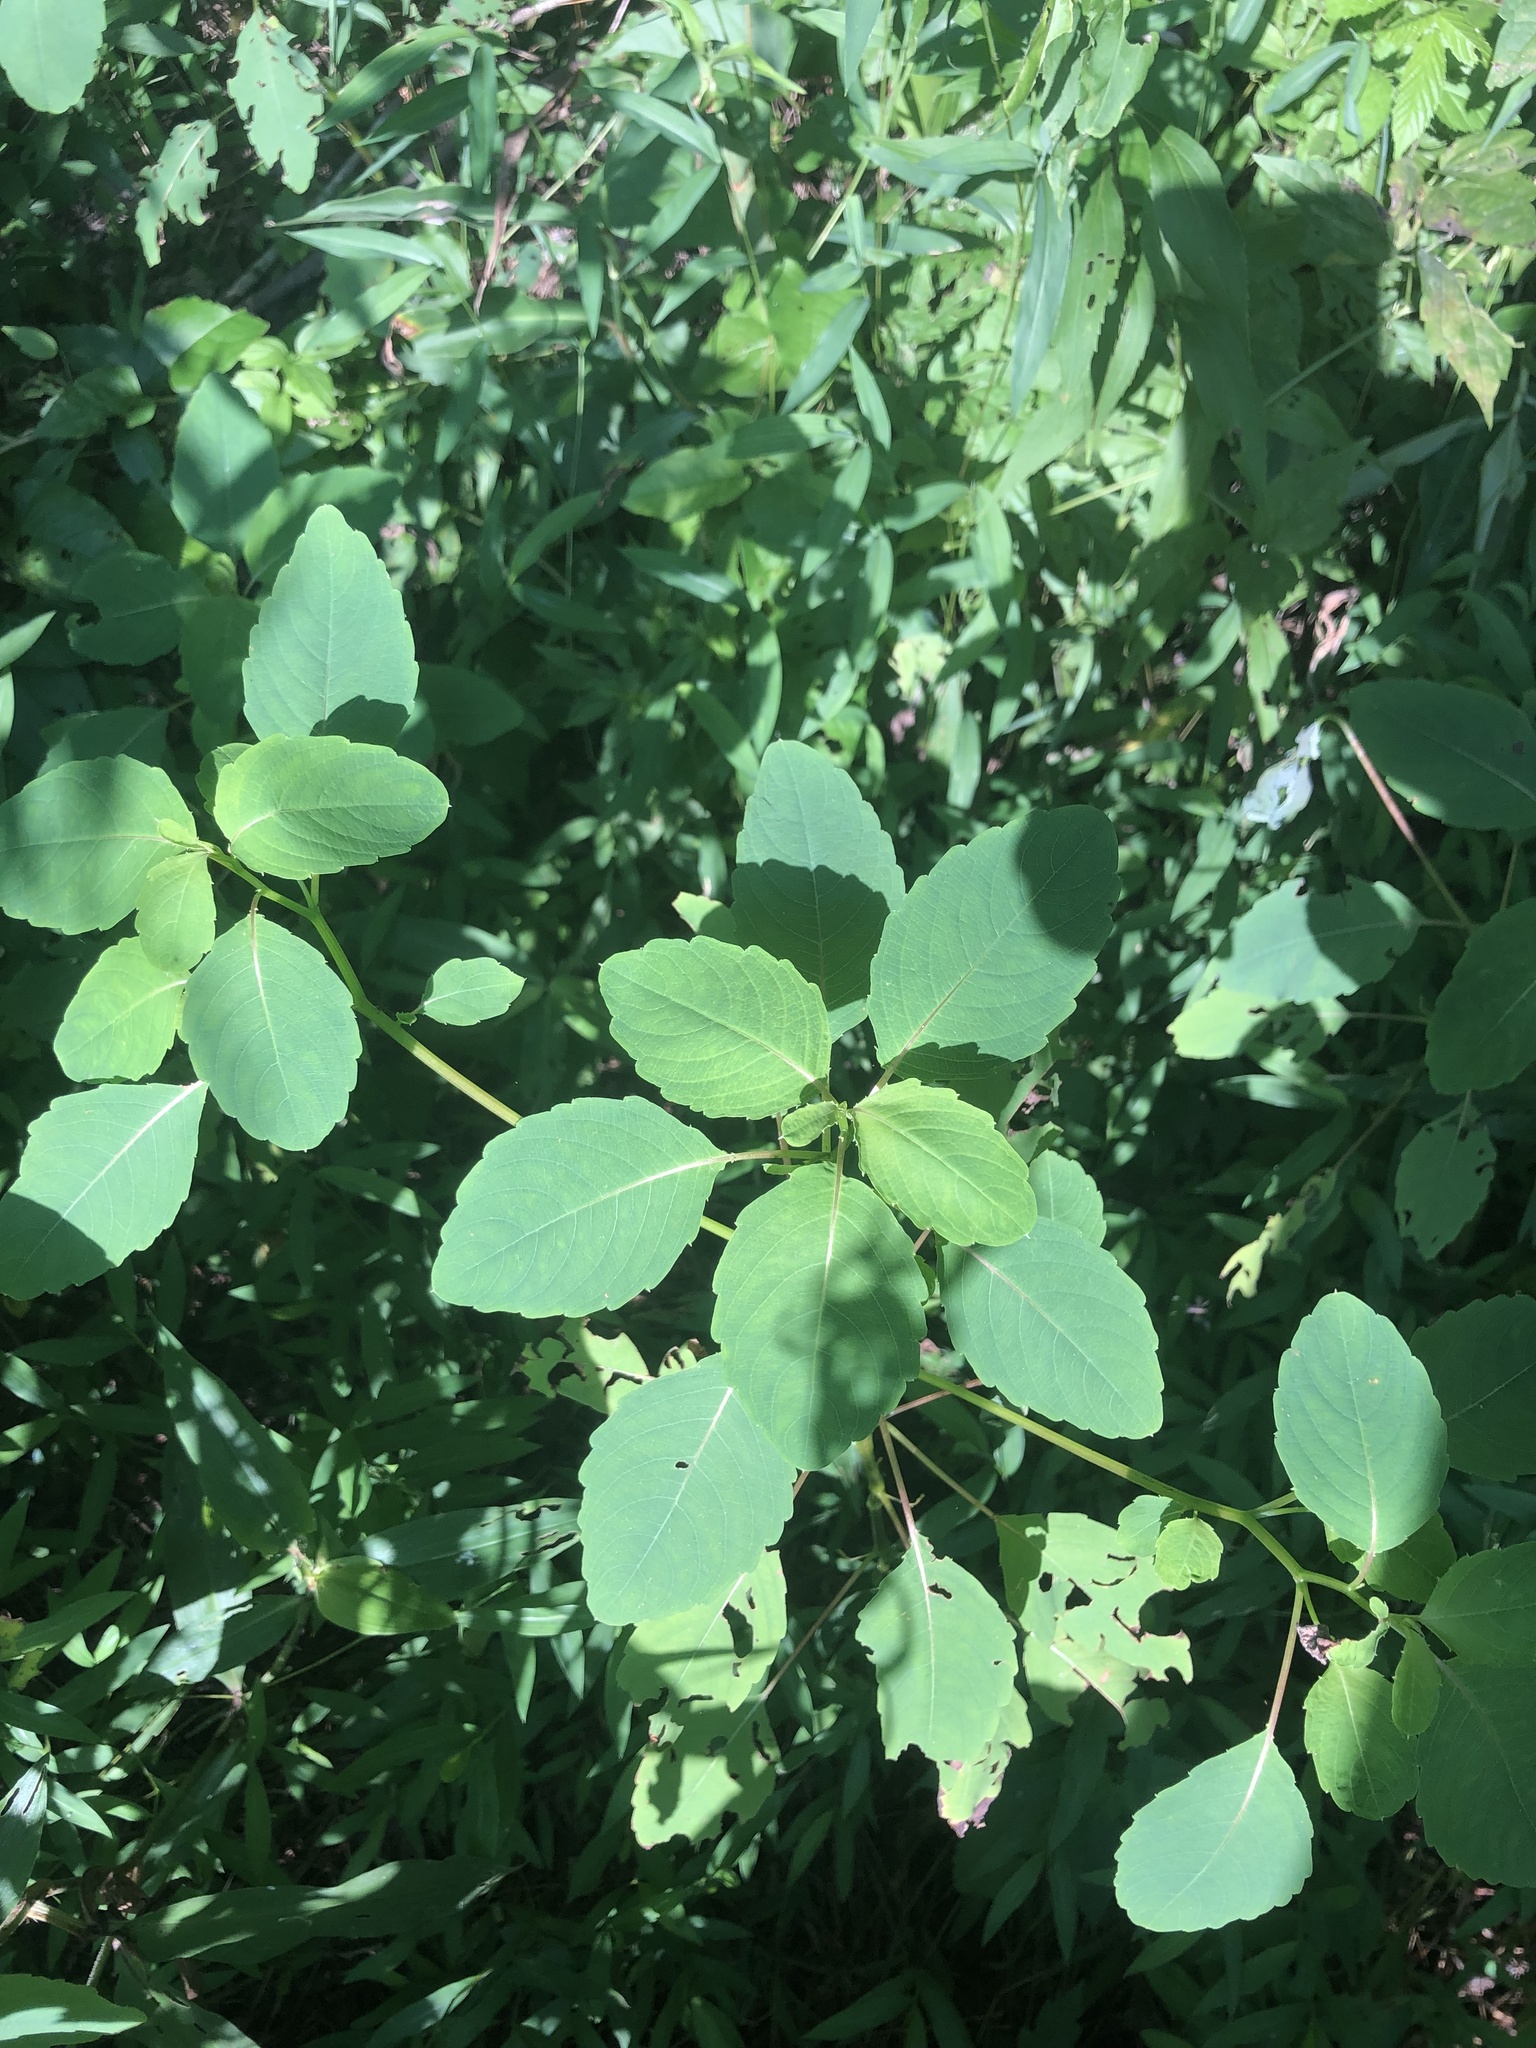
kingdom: Plantae
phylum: Tracheophyta
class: Magnoliopsida
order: Ericales
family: Balsaminaceae
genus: Impatiens
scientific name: Impatiens capensis
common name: Orange balsam
